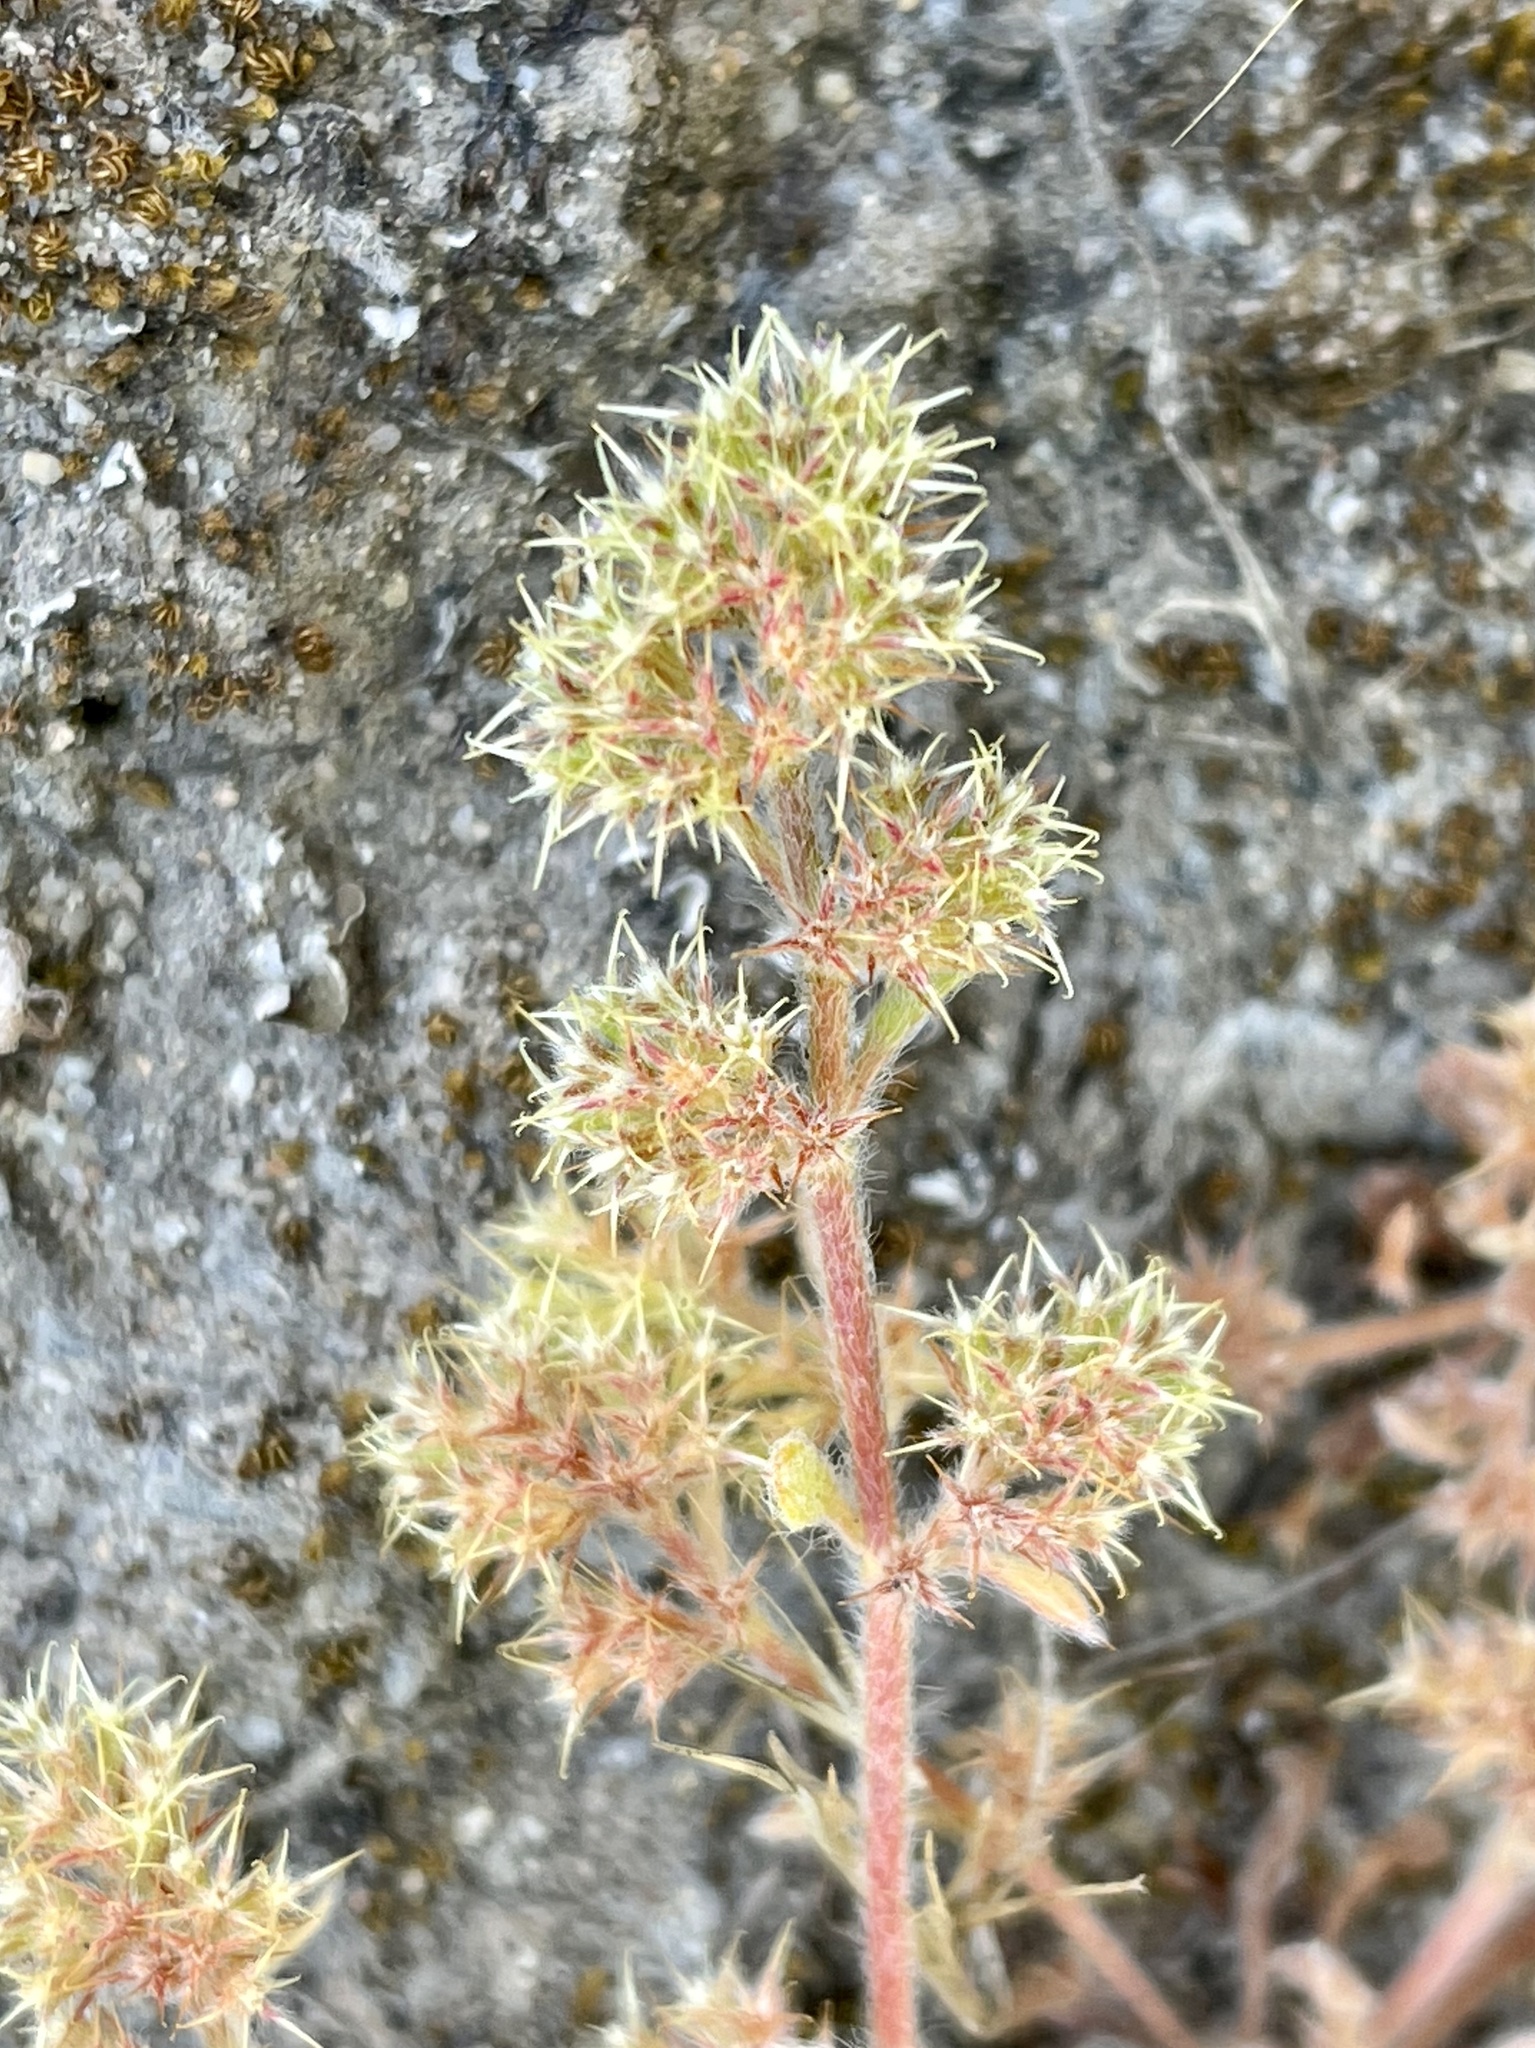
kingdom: Plantae
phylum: Tracheophyta
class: Magnoliopsida
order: Caryophyllales
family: Polygonaceae
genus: Chorizanthe
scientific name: Chorizanthe minutiflora
